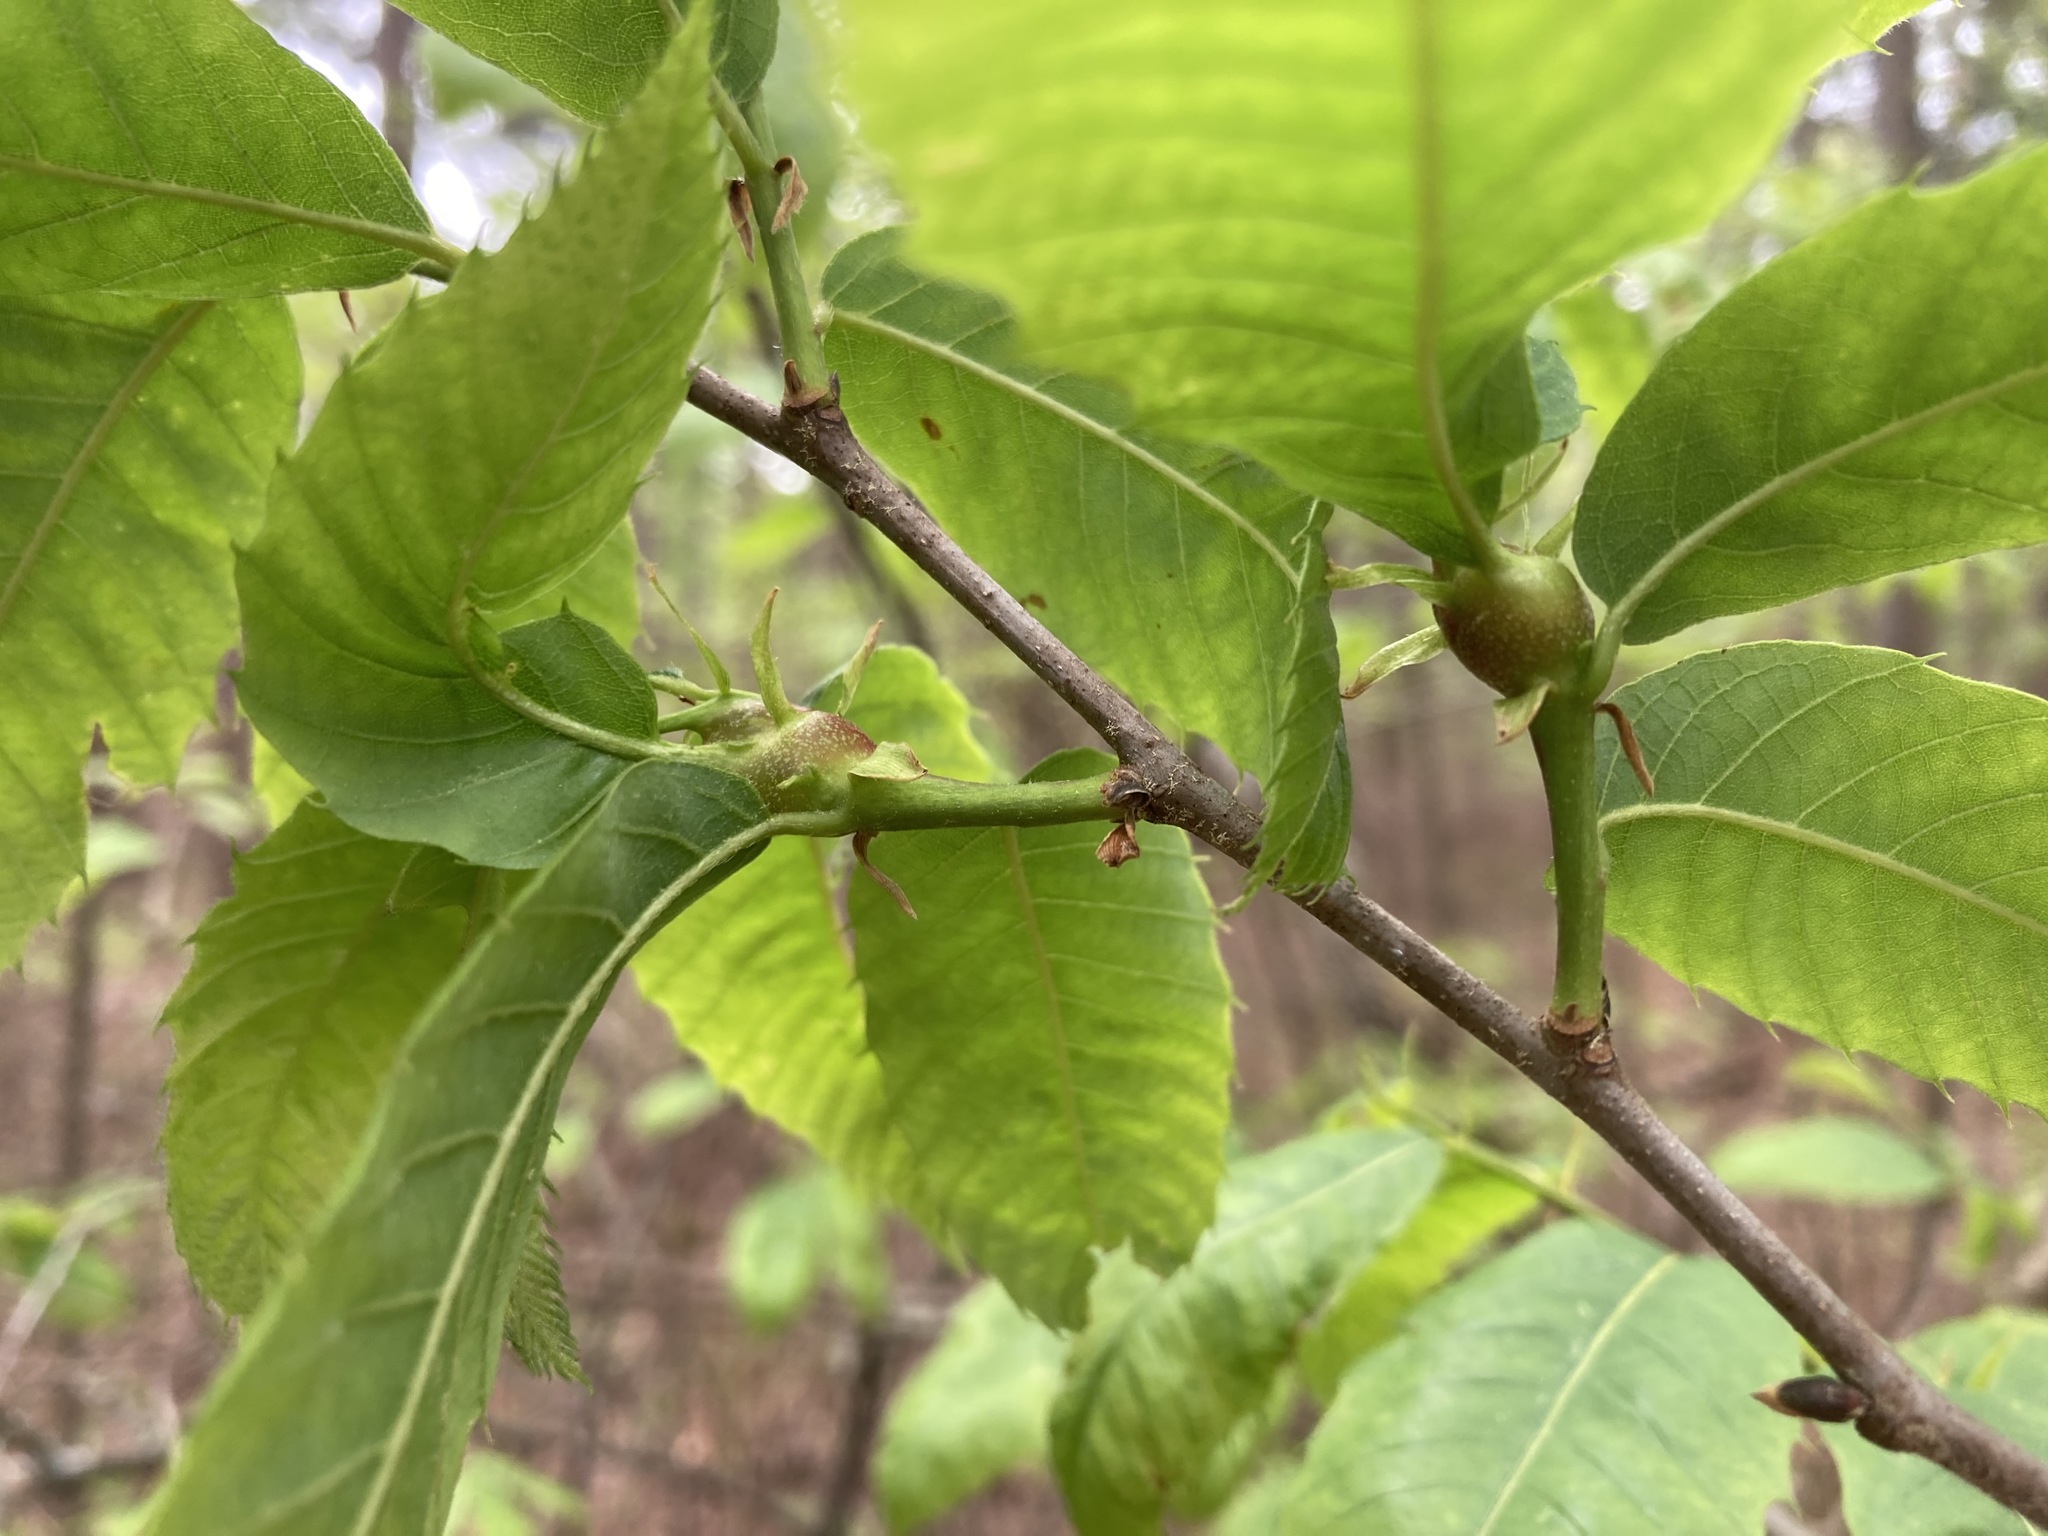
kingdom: Animalia
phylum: Arthropoda
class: Insecta
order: Hymenoptera
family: Cynipidae
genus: Dryocosmus
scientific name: Dryocosmus kuriphilus
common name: Asian chestnut gall wasp
